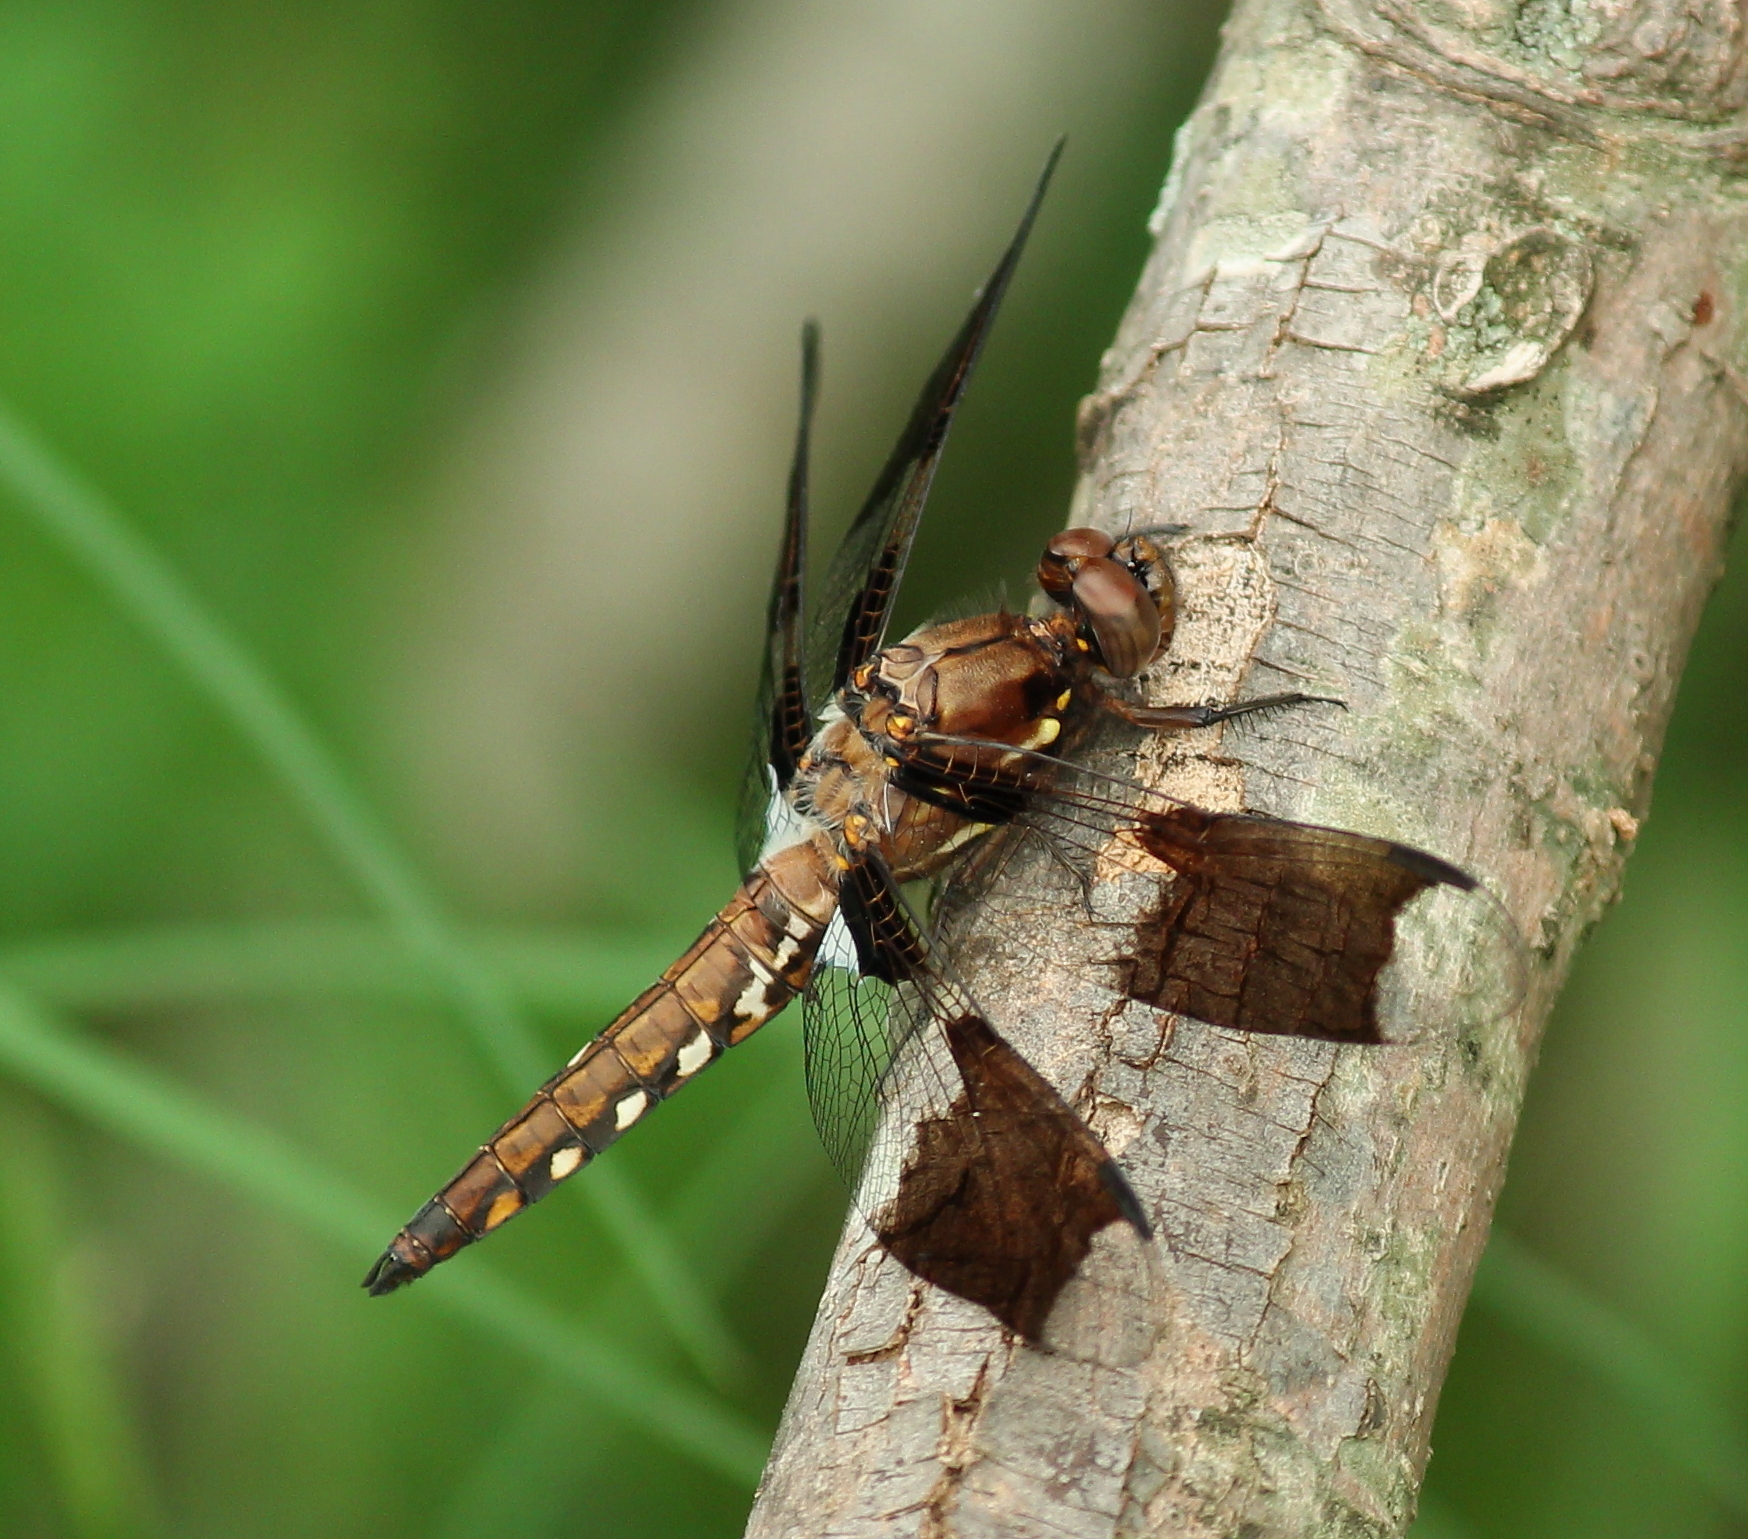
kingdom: Animalia
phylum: Arthropoda
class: Insecta
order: Odonata
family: Libellulidae
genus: Plathemis
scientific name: Plathemis lydia
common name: Common whitetail
